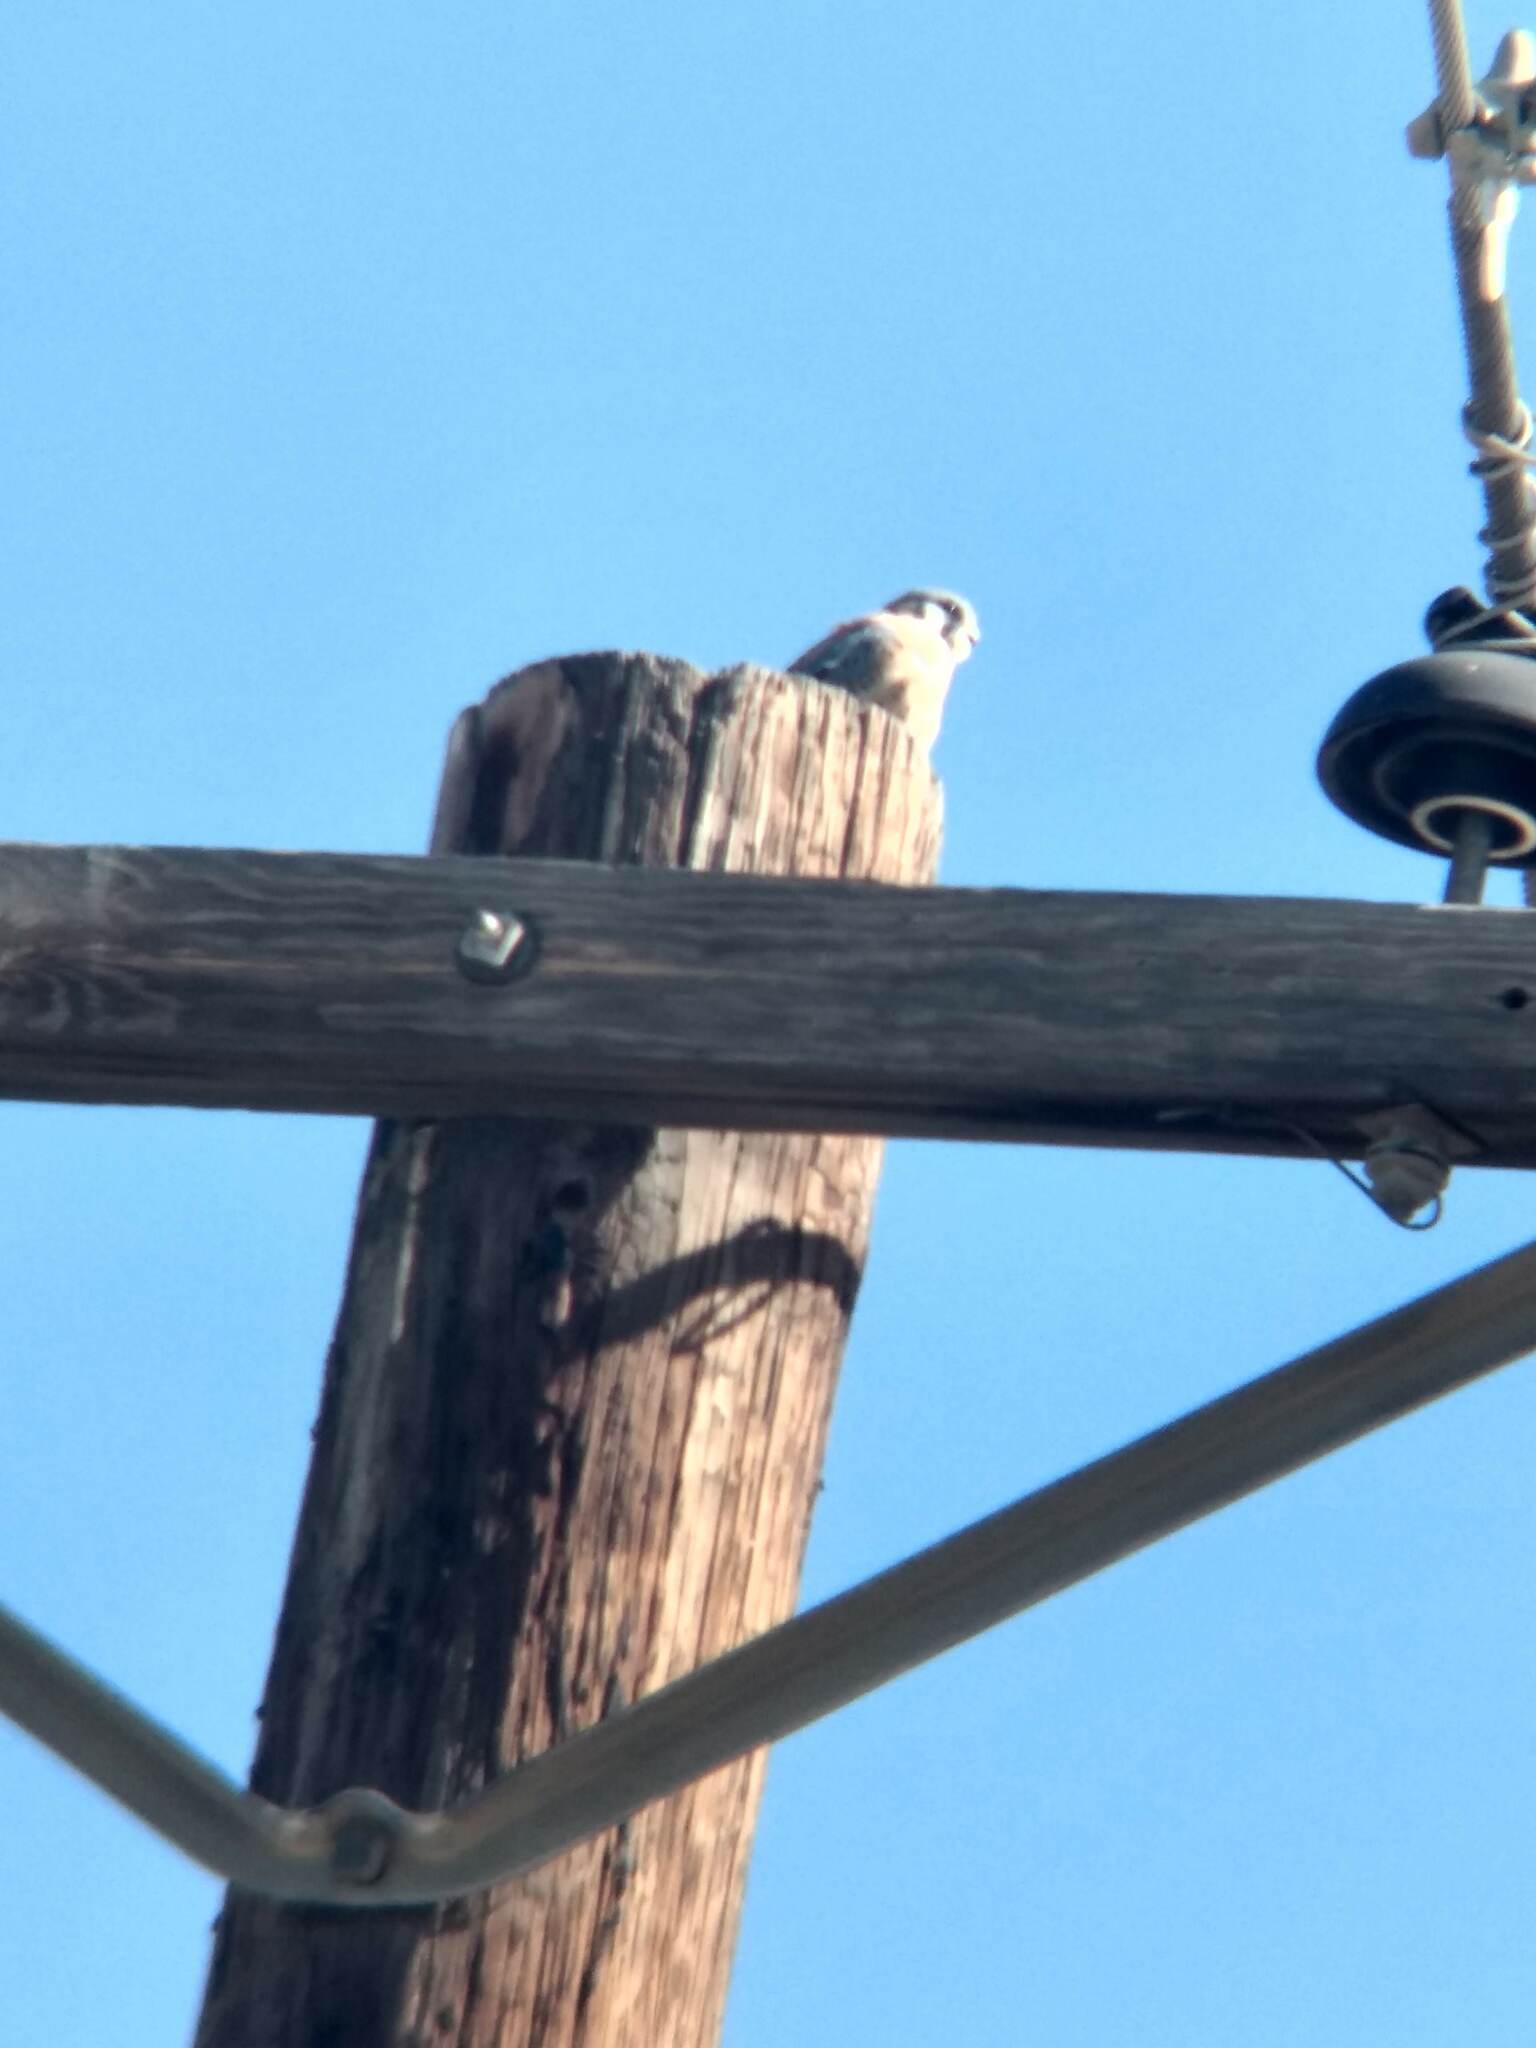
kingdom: Animalia
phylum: Chordata
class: Aves
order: Falconiformes
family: Falconidae
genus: Falco
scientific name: Falco sparverius
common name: American kestrel
